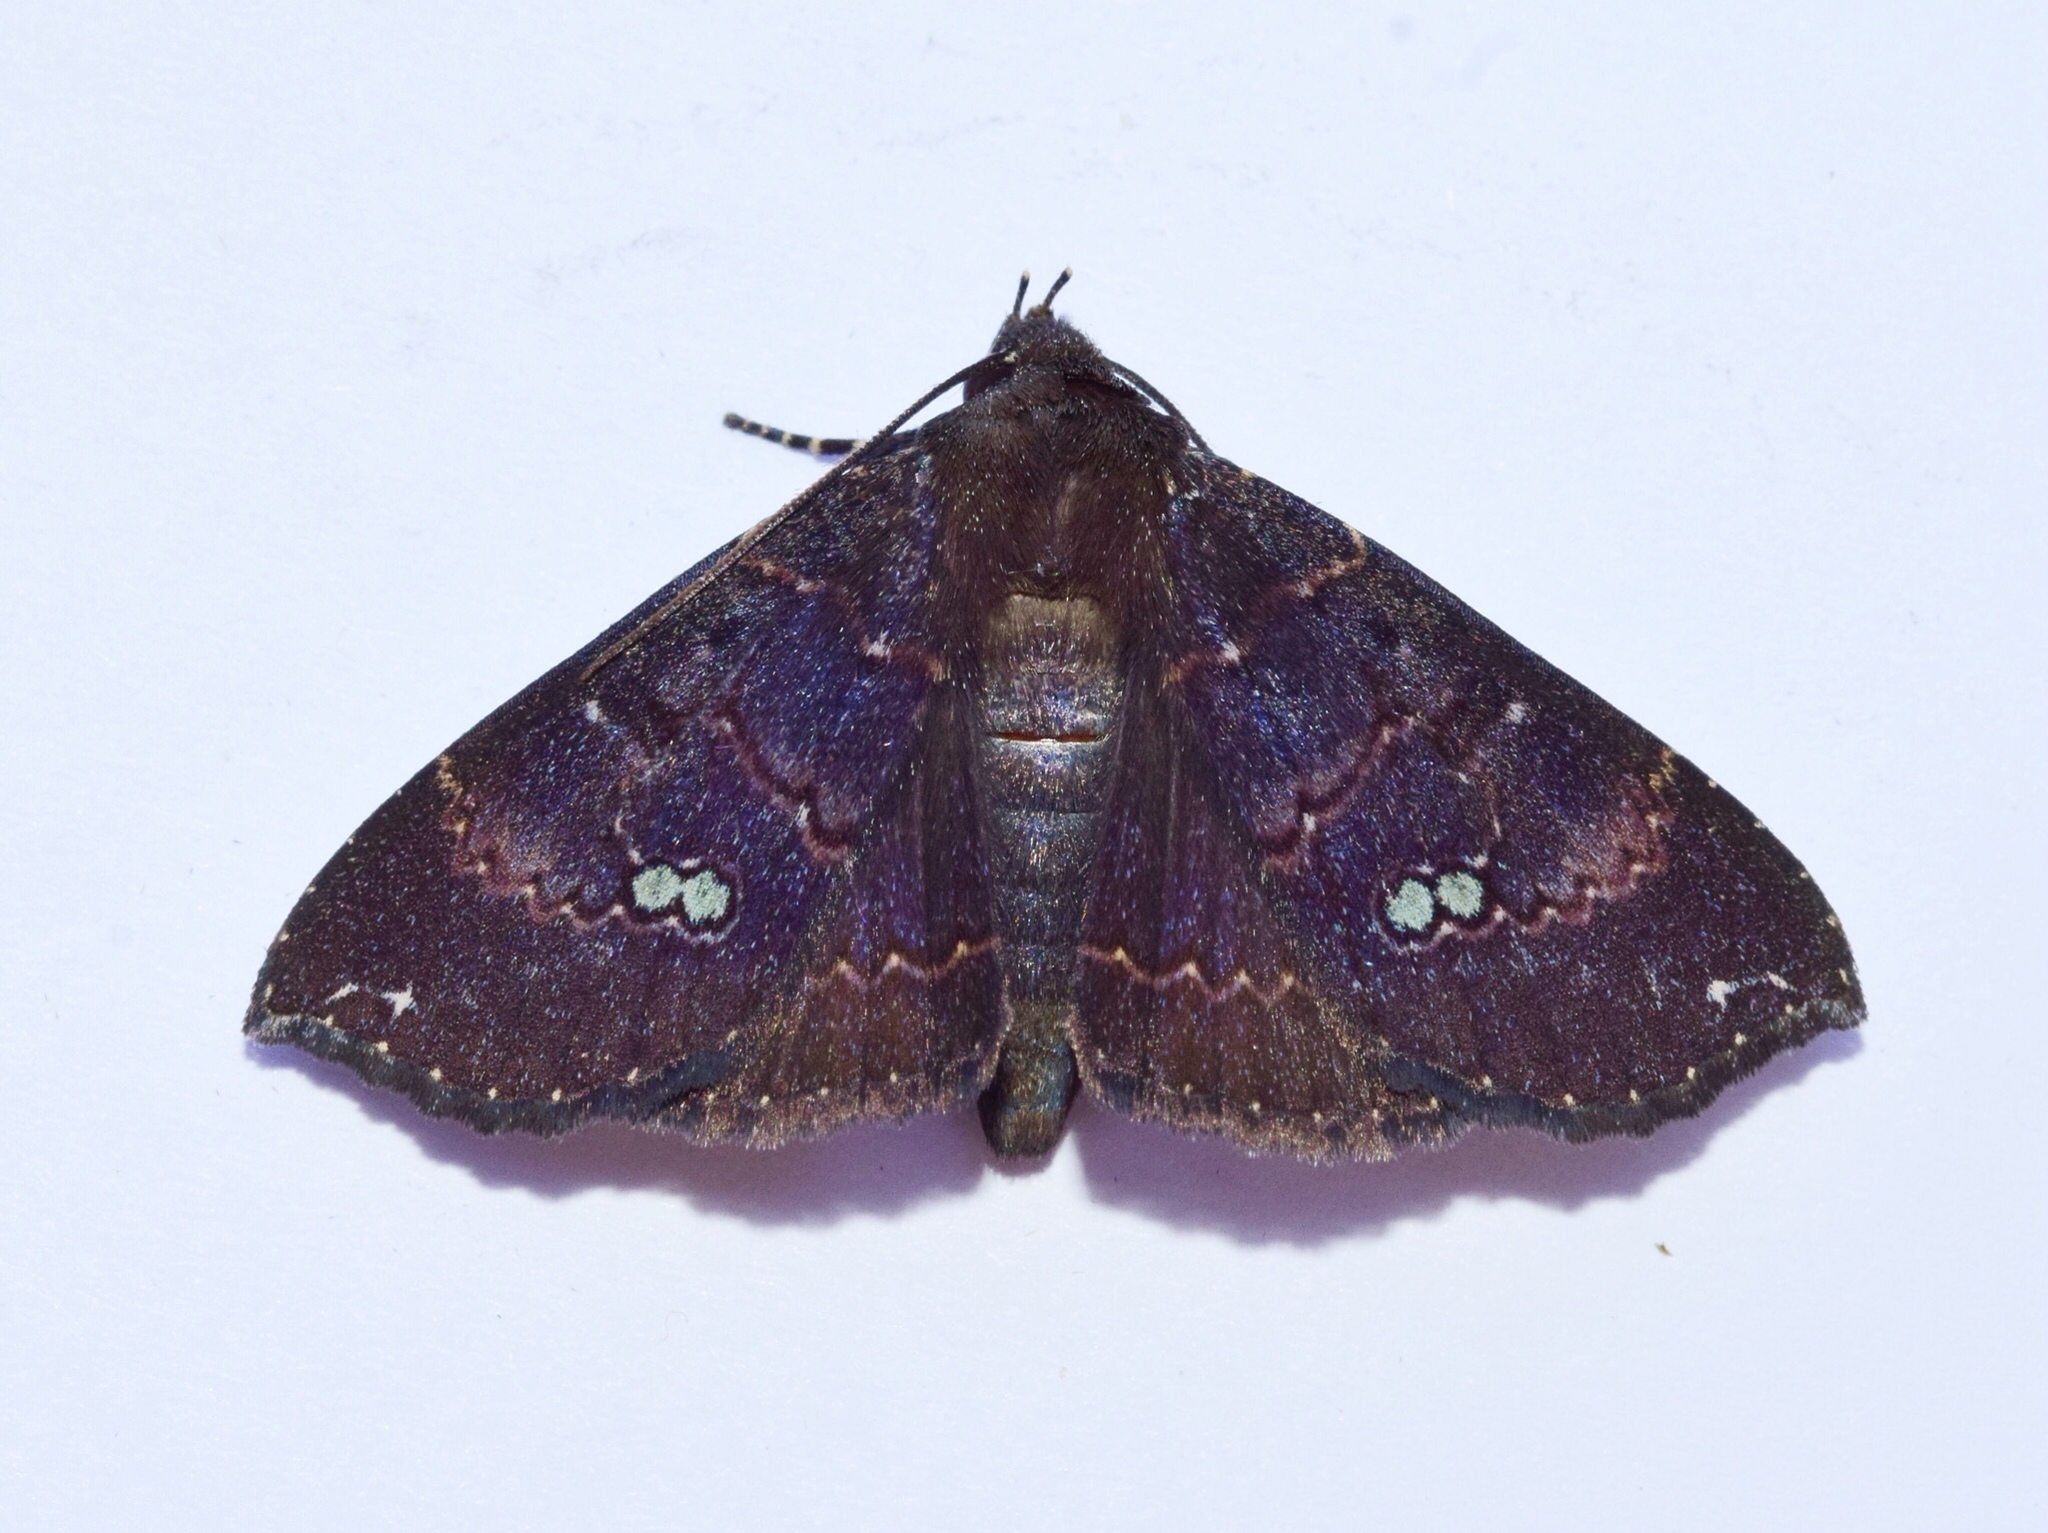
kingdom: Animalia
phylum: Arthropoda
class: Insecta
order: Lepidoptera
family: Erebidae
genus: Platyja
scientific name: Platyja vacillans
